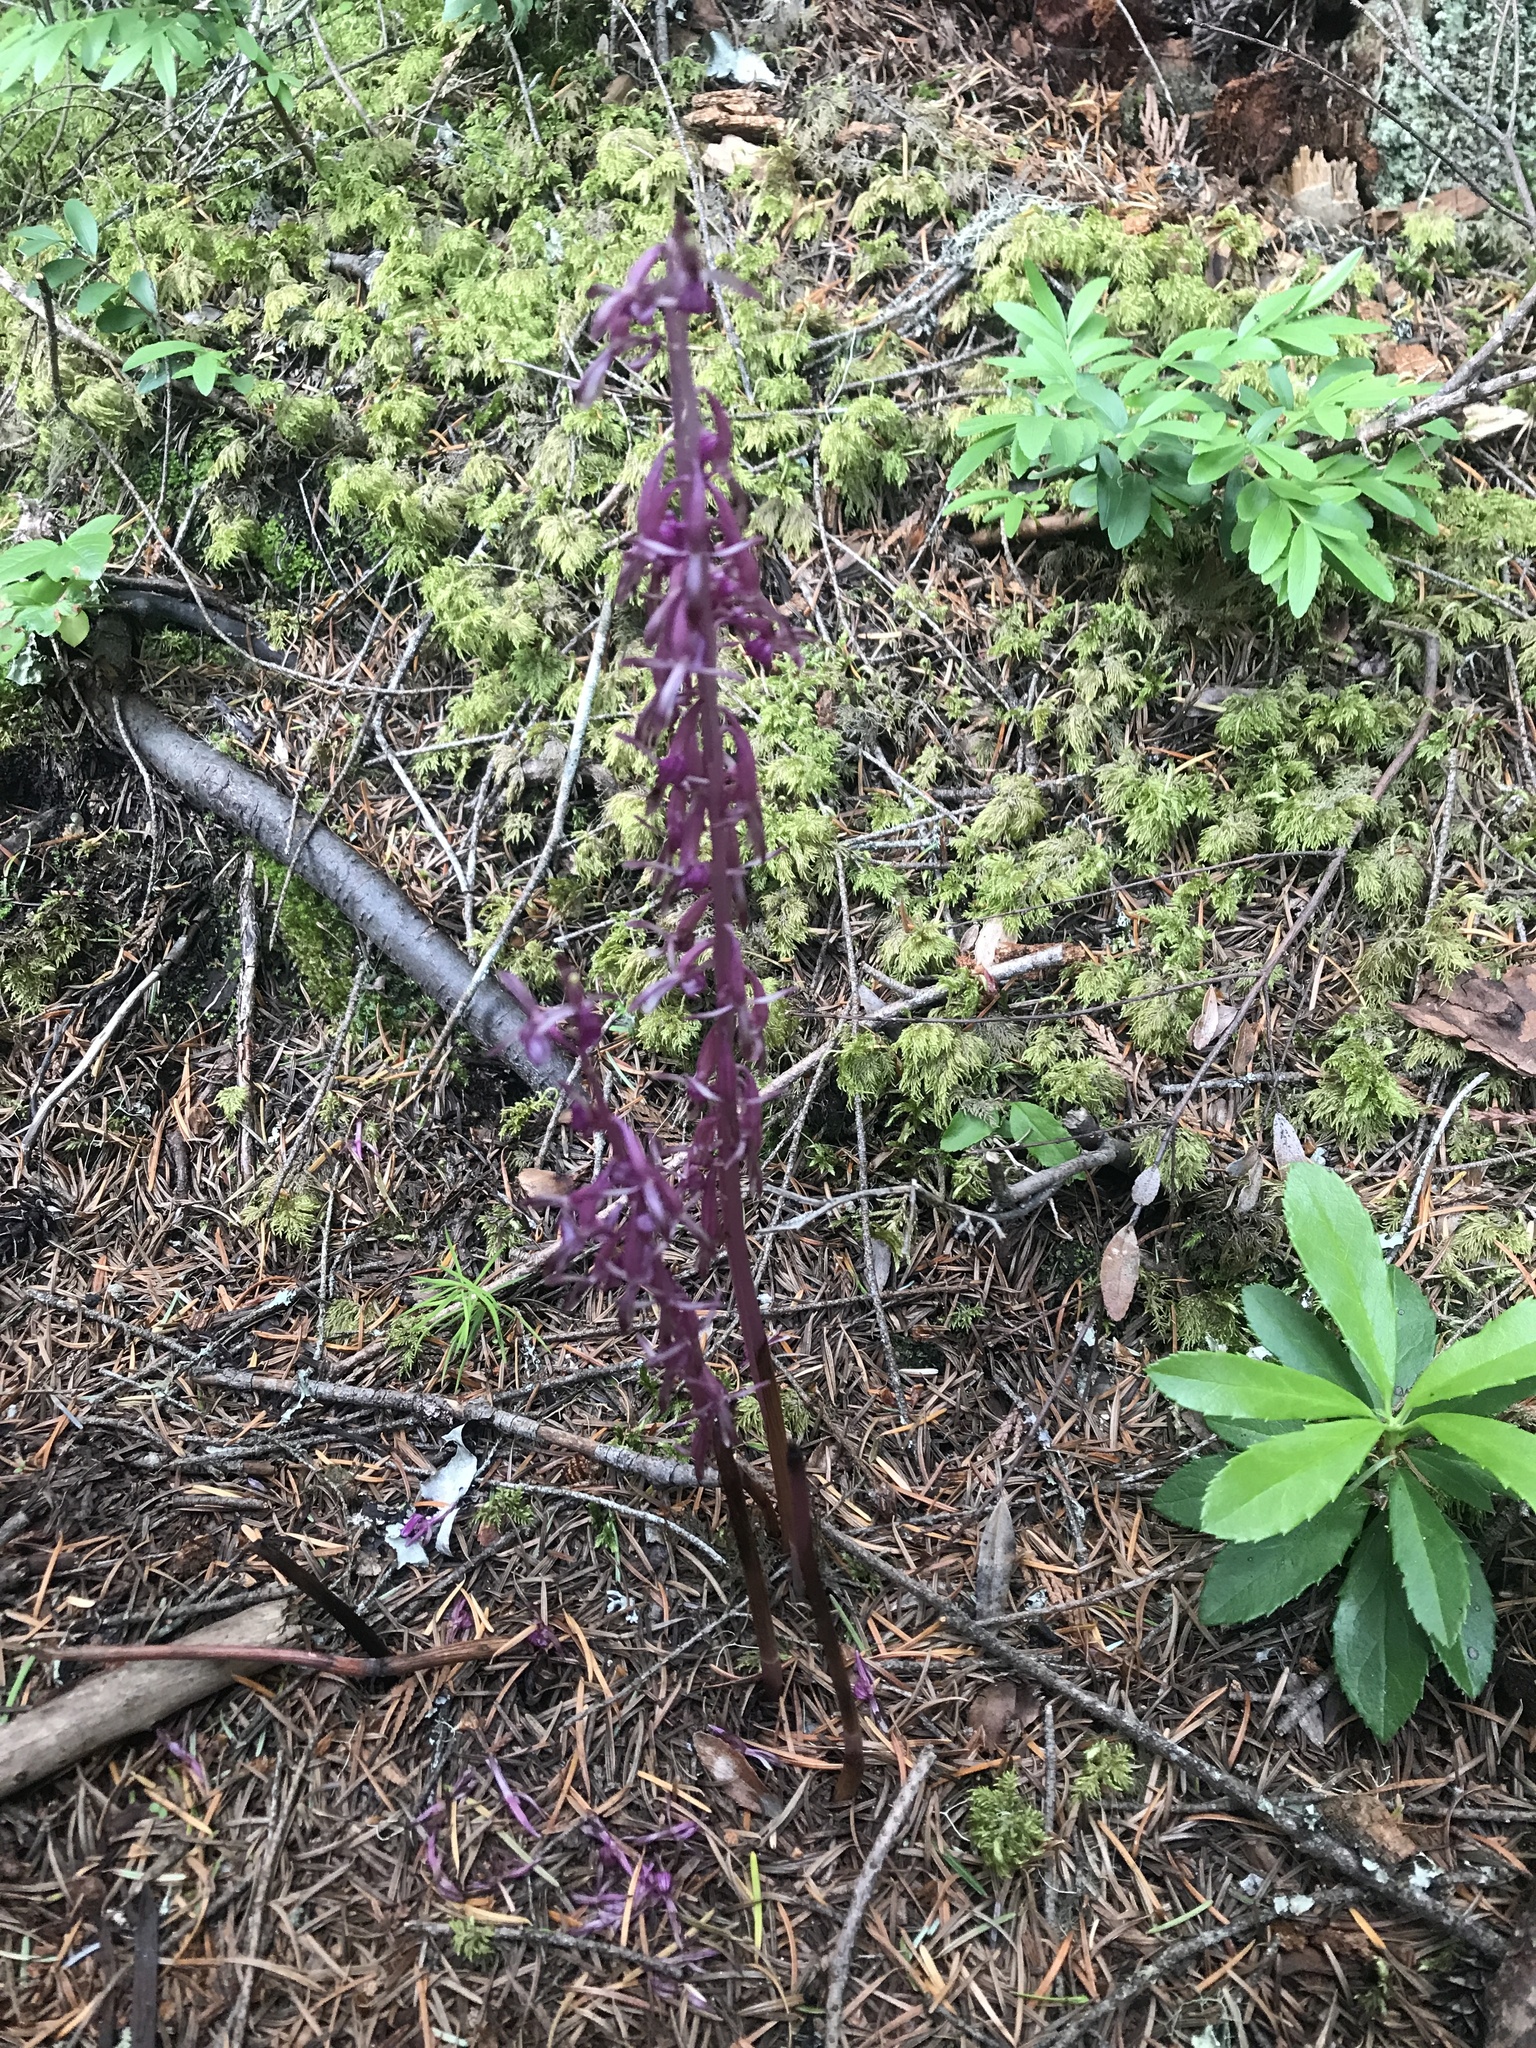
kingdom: Plantae
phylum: Tracheophyta
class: Liliopsida
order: Asparagales
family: Orchidaceae
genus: Corallorhiza
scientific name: Corallorhiza mertensiana
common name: Pacific coralroot
